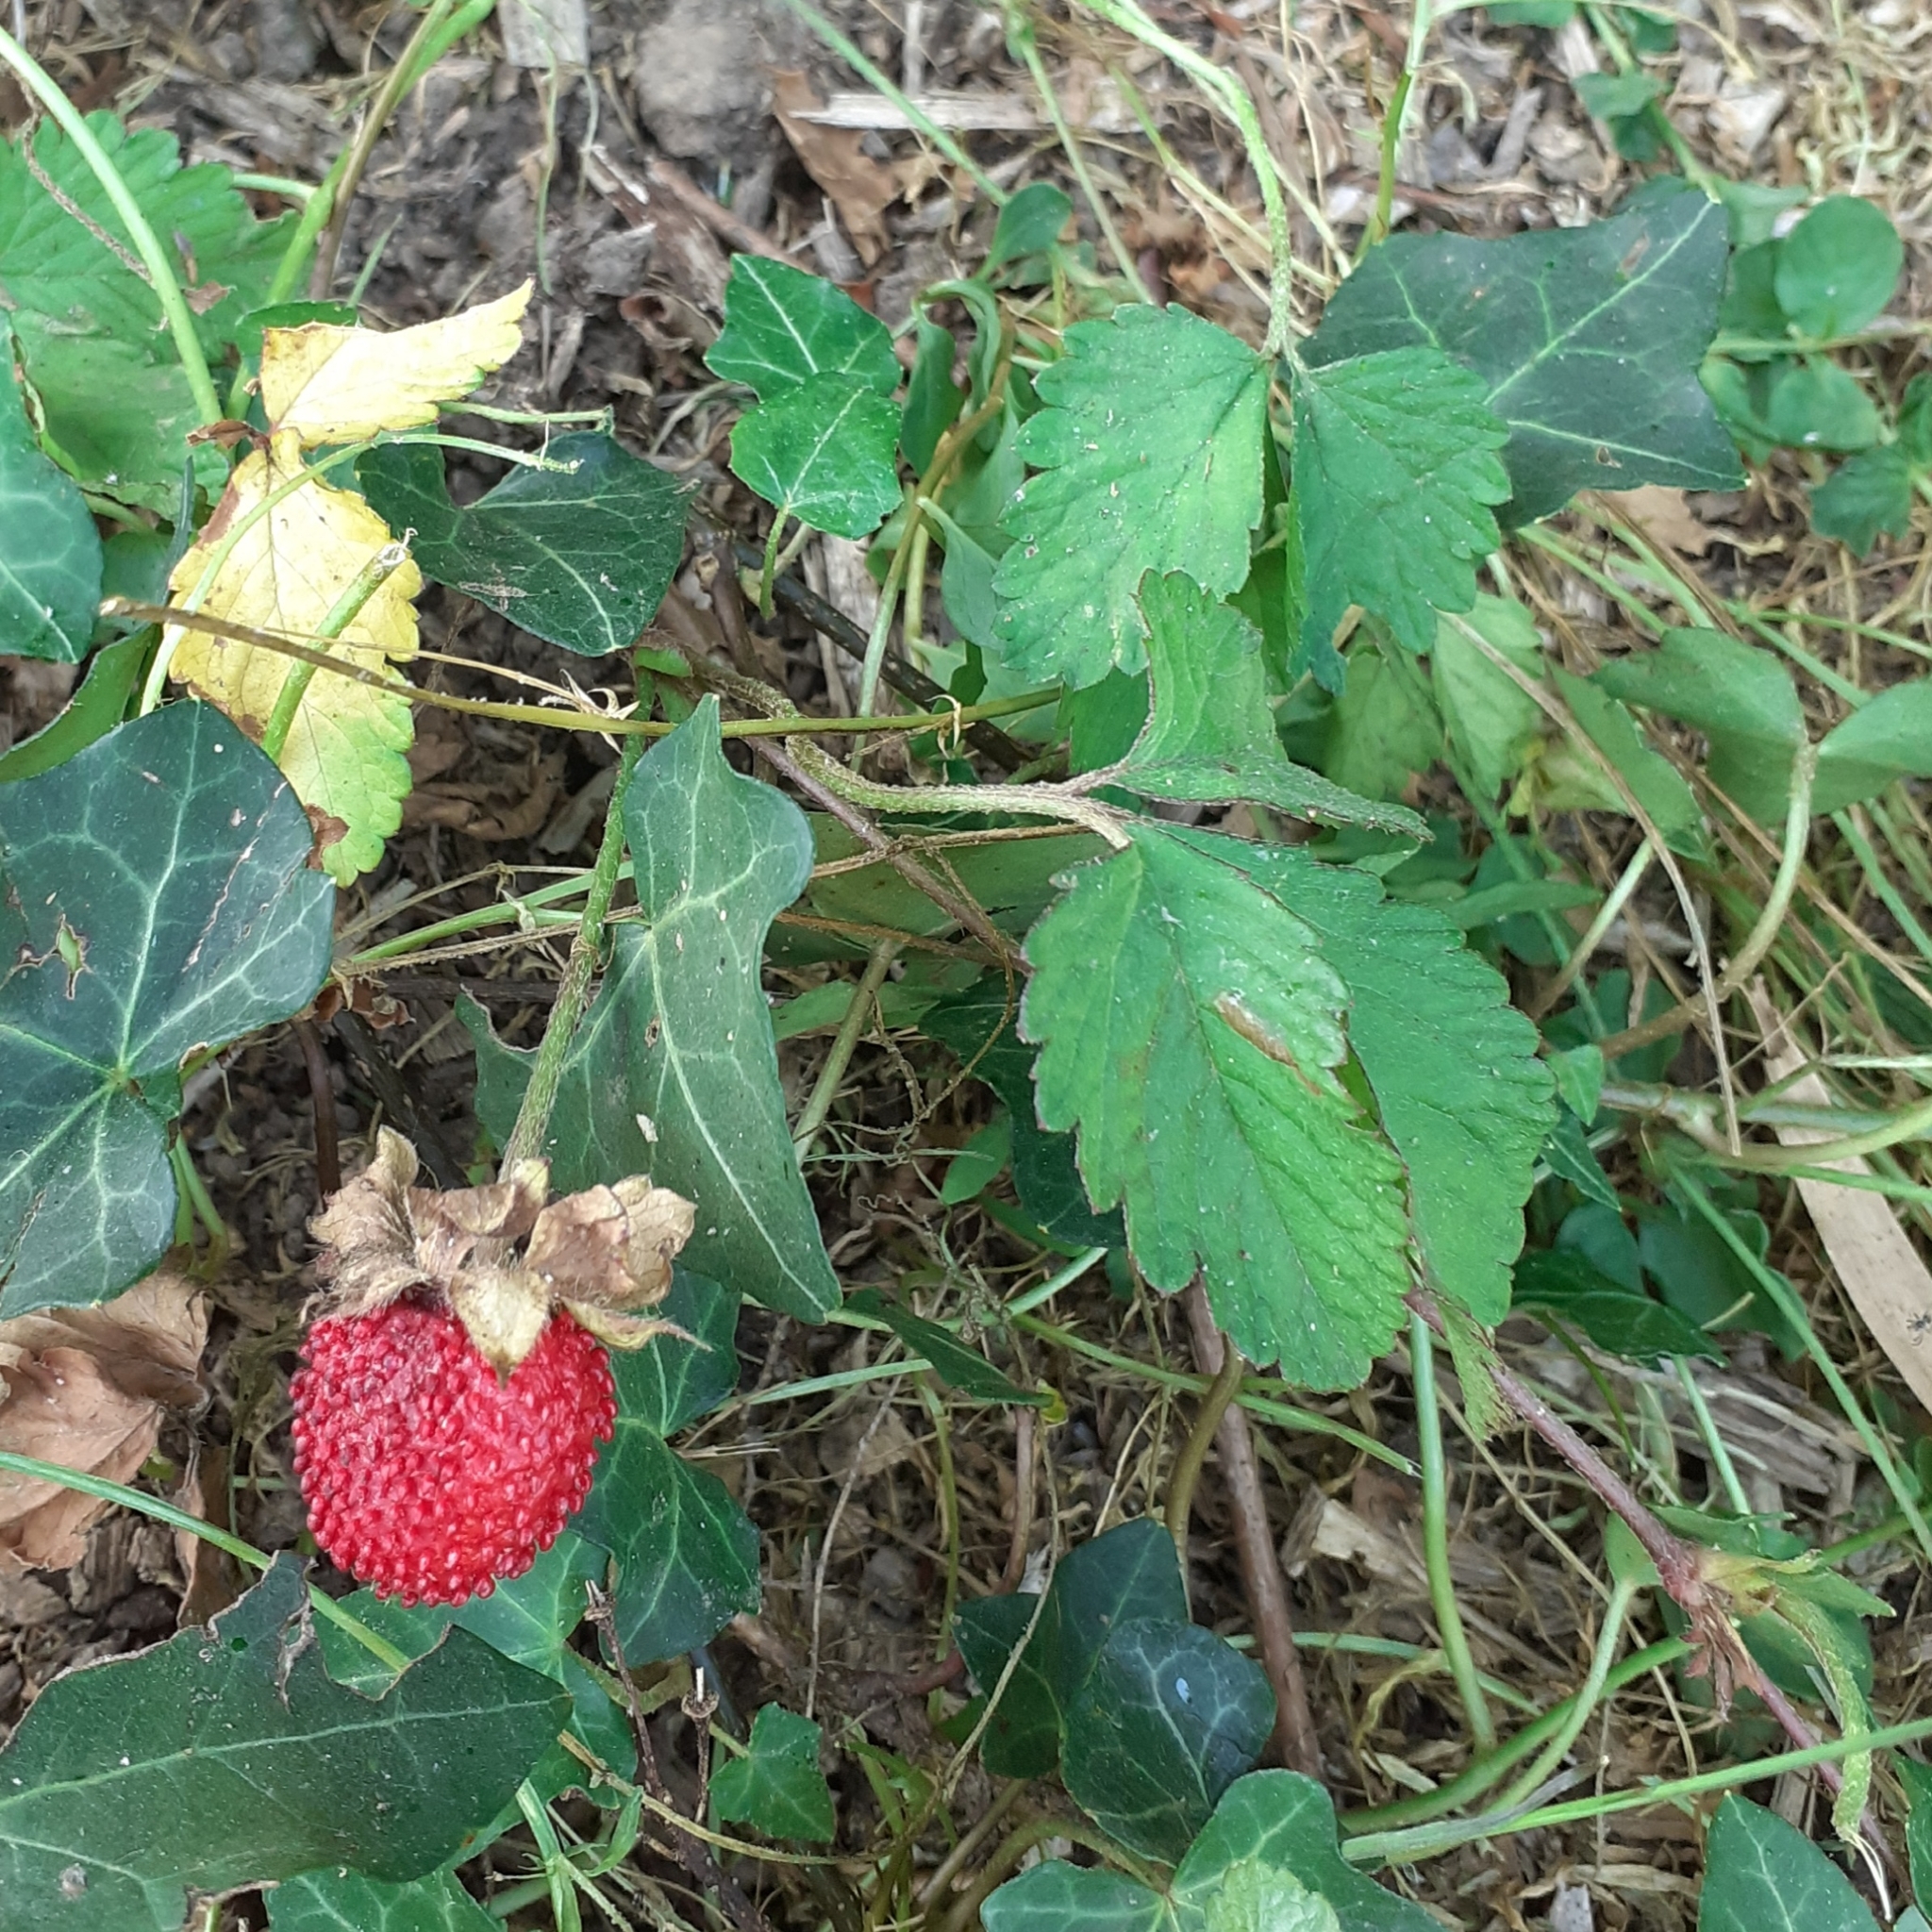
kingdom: Plantae
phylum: Tracheophyta
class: Magnoliopsida
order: Rosales
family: Rosaceae
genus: Fragaria
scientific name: Fragaria vesca
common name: Wild strawberry
